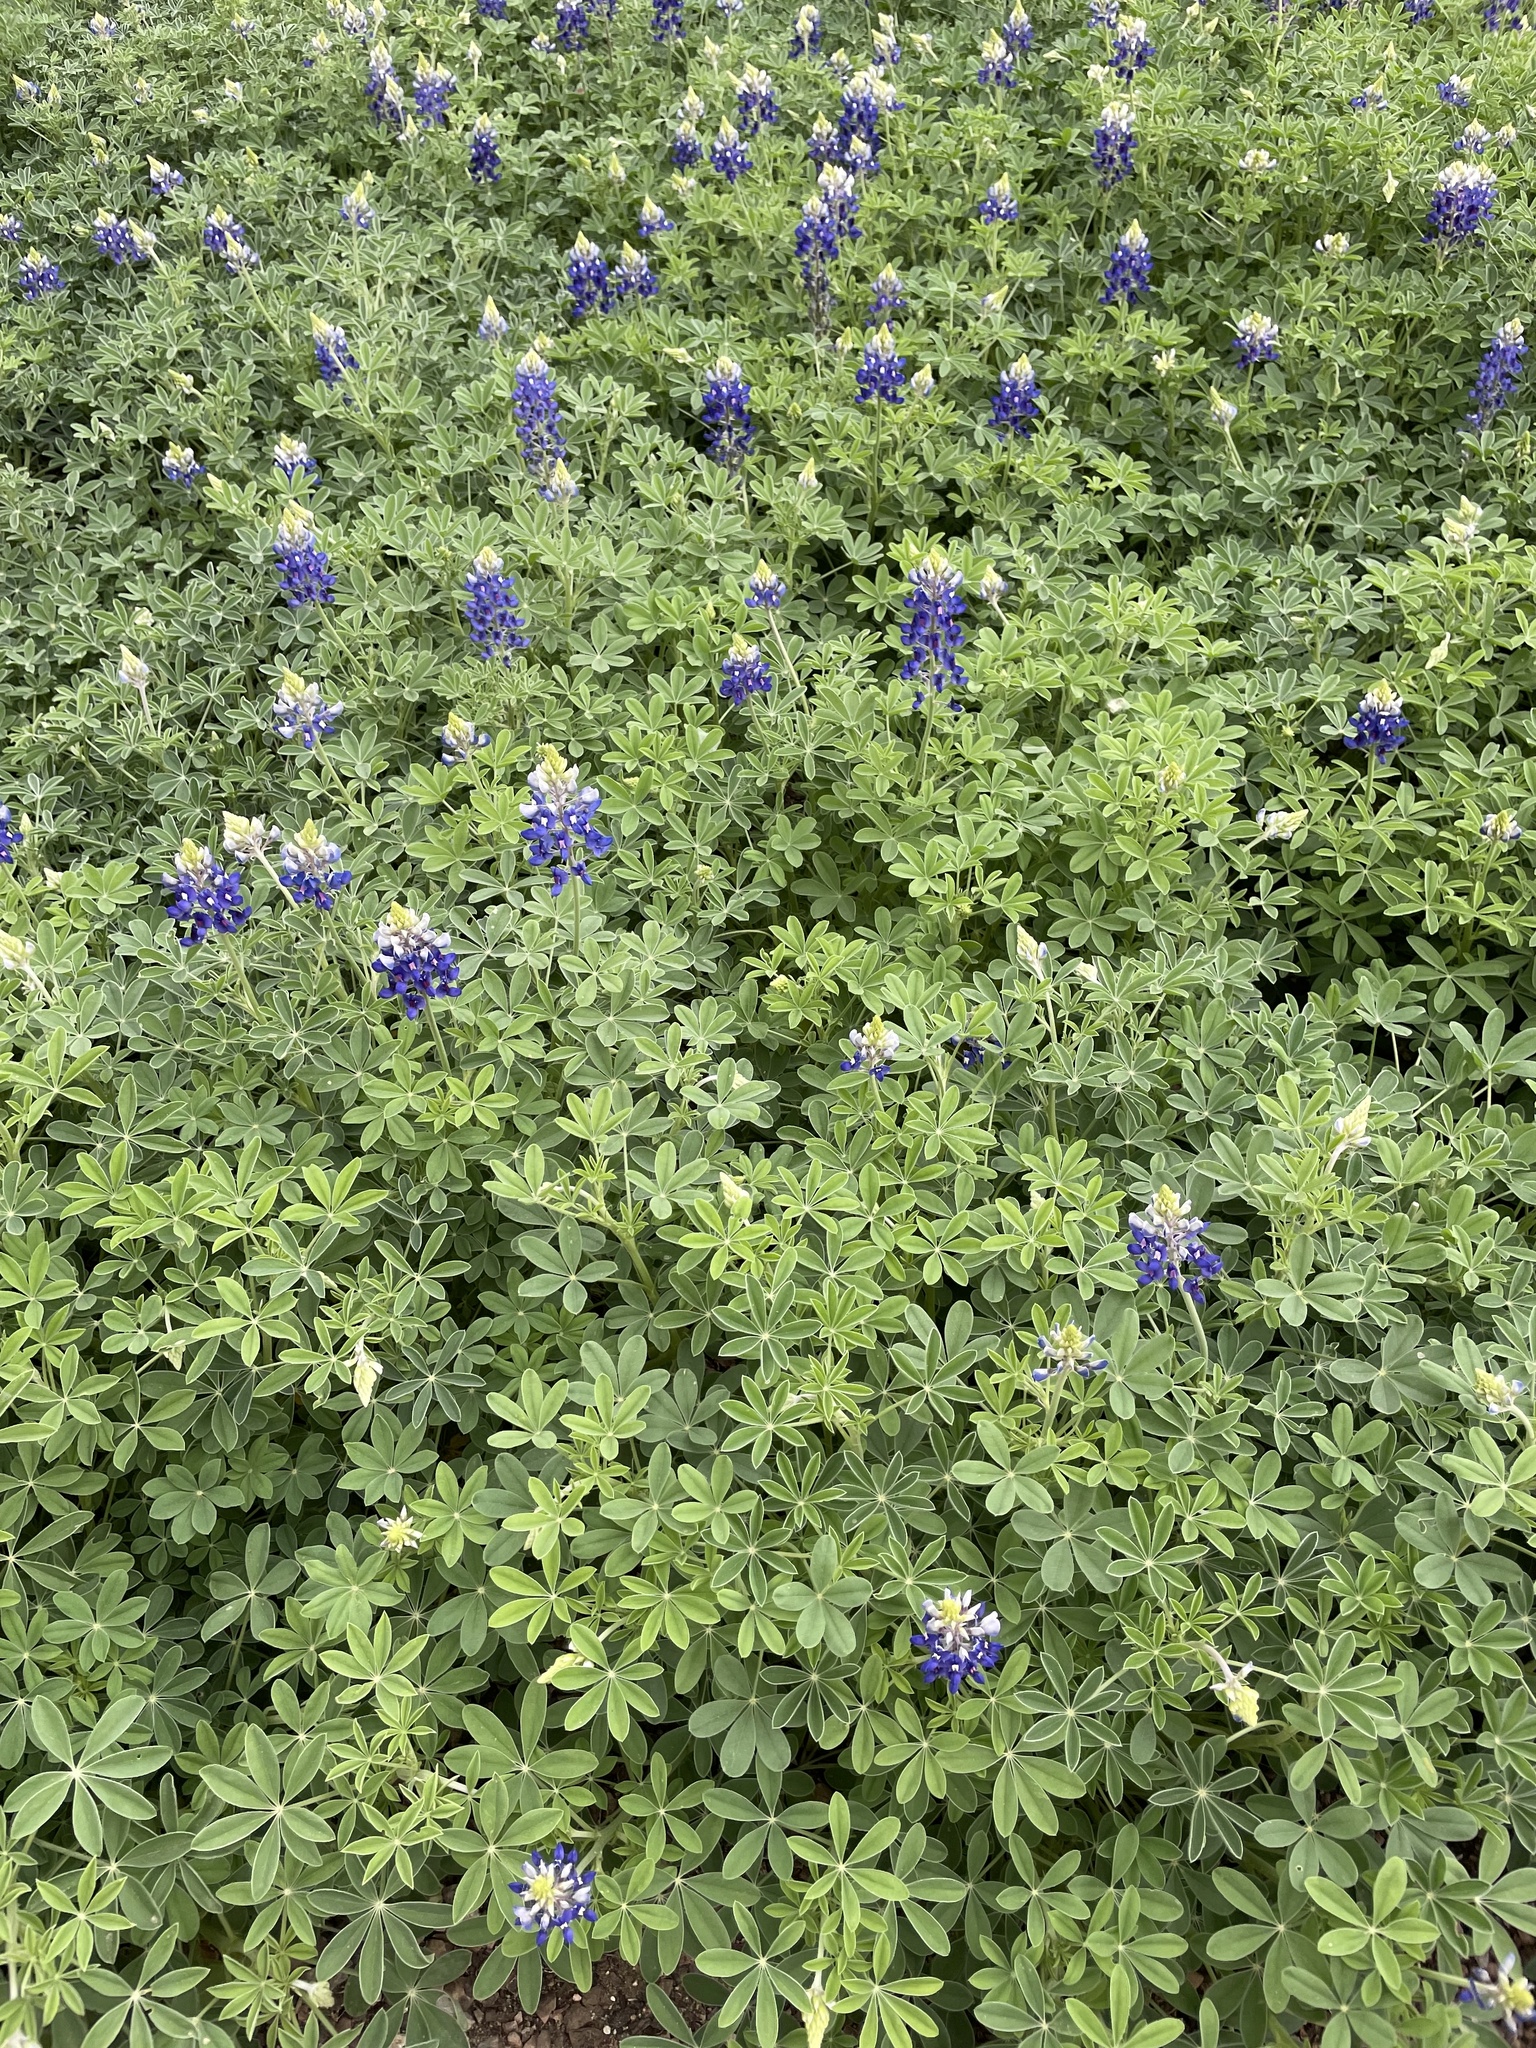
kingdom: Plantae
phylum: Tracheophyta
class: Magnoliopsida
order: Fabales
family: Fabaceae
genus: Lupinus
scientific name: Lupinus texensis
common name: Texas bluebonnet
